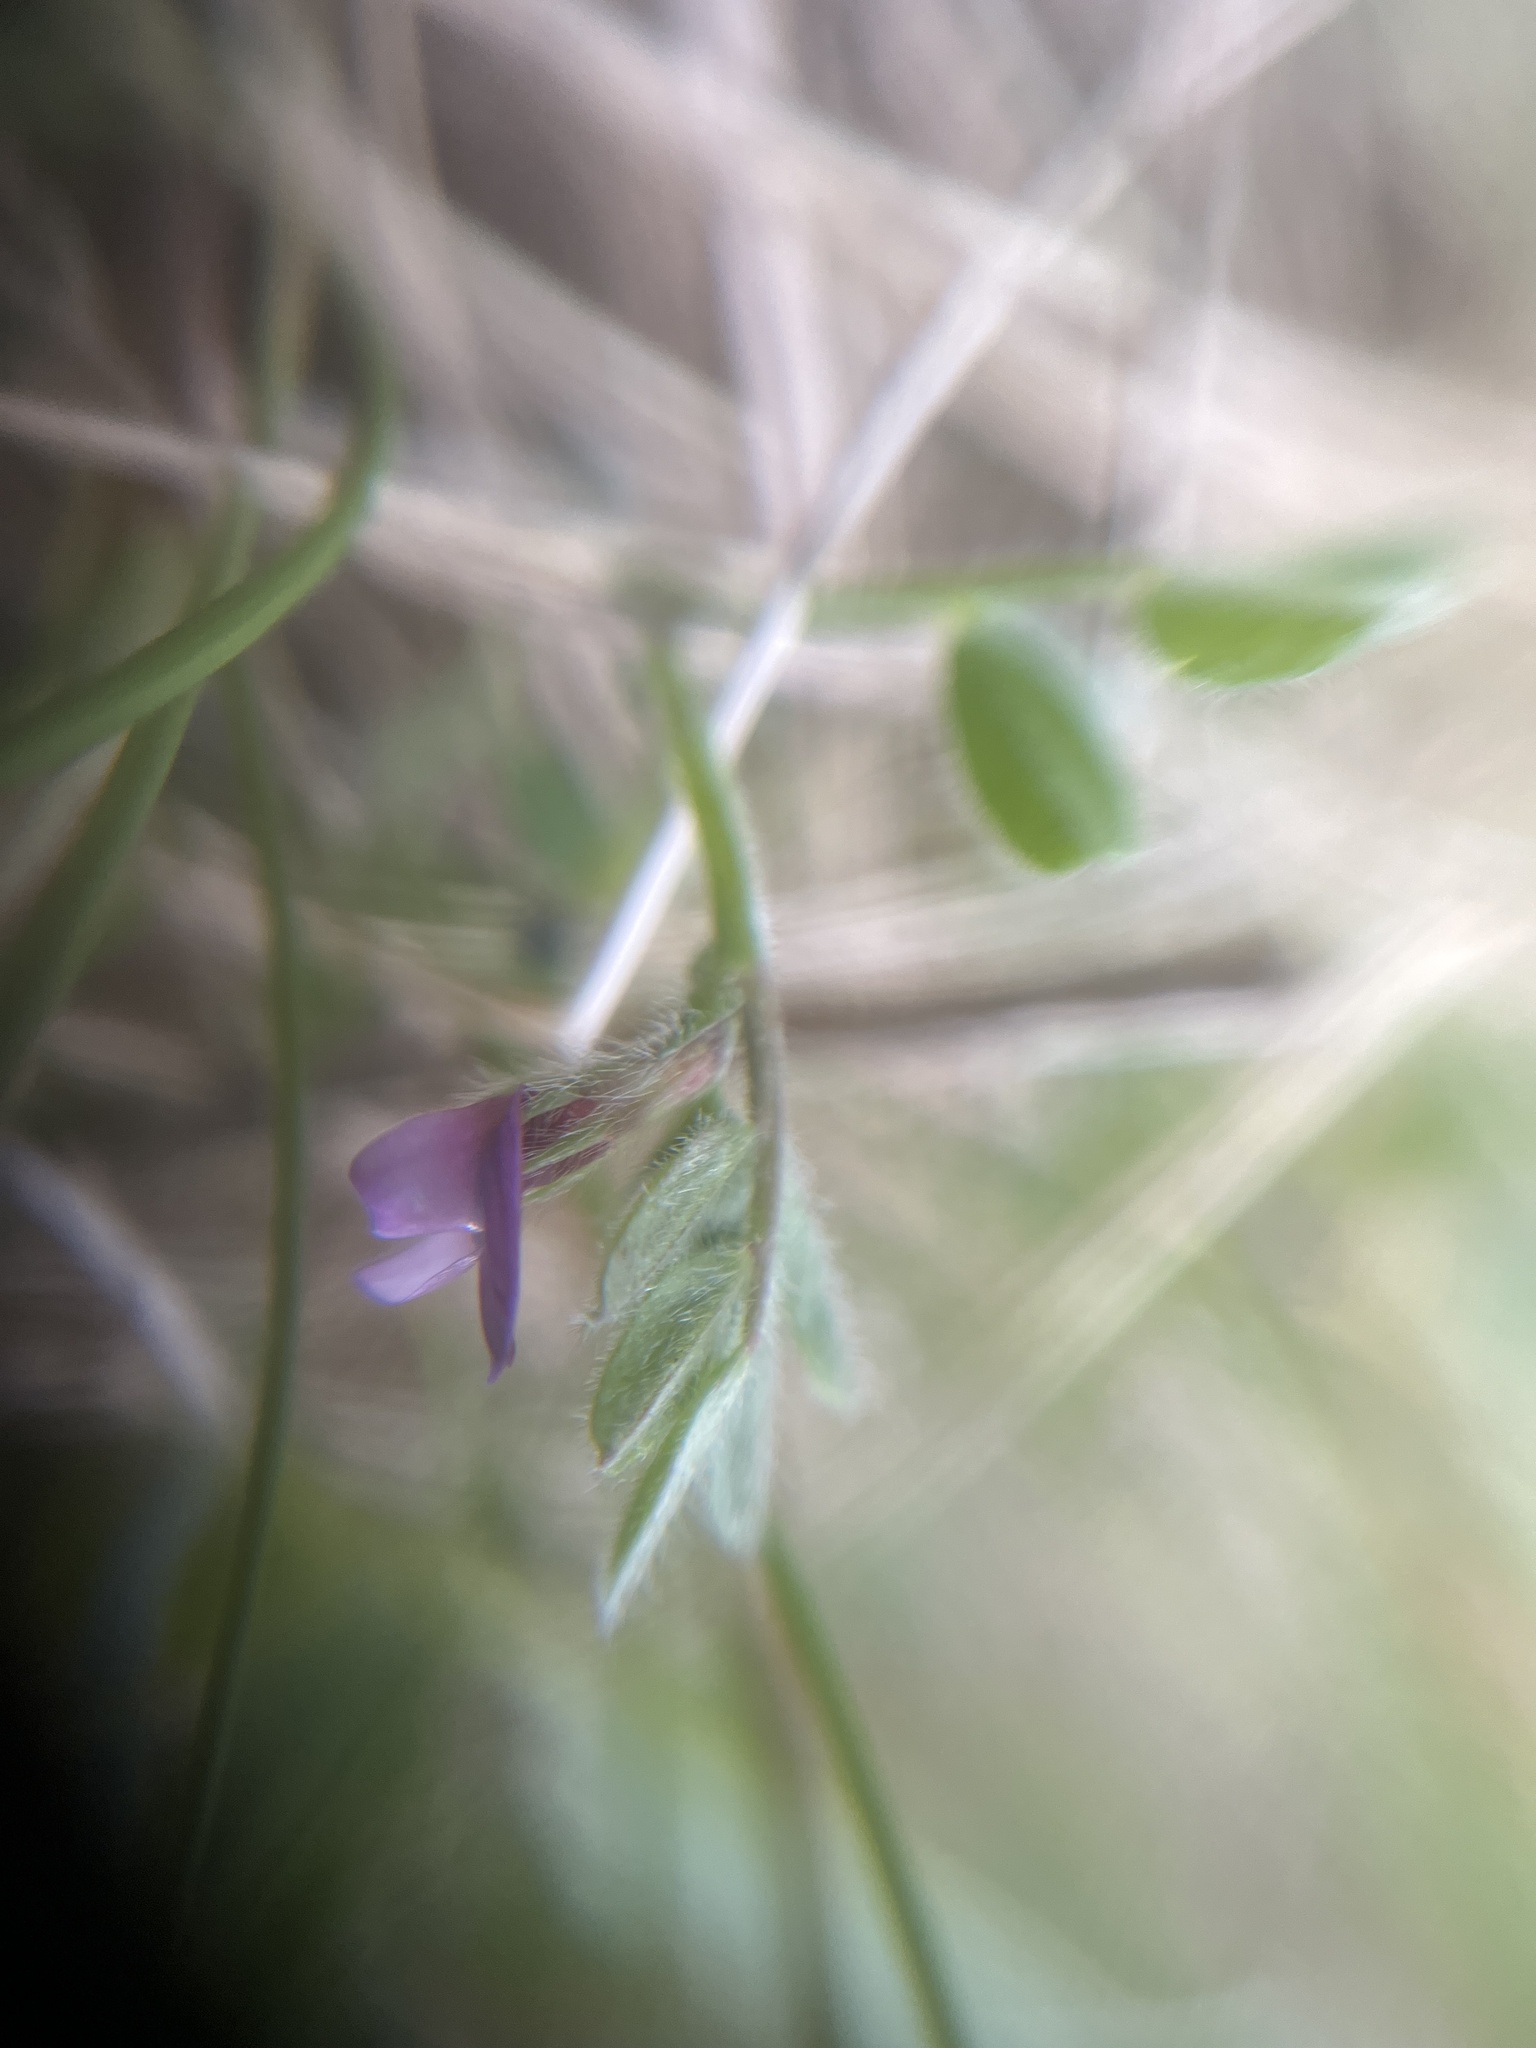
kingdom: Plantae
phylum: Tracheophyta
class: Magnoliopsida
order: Fabales
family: Fabaceae
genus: Vicia
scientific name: Vicia lathyroides
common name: Spring vetch
